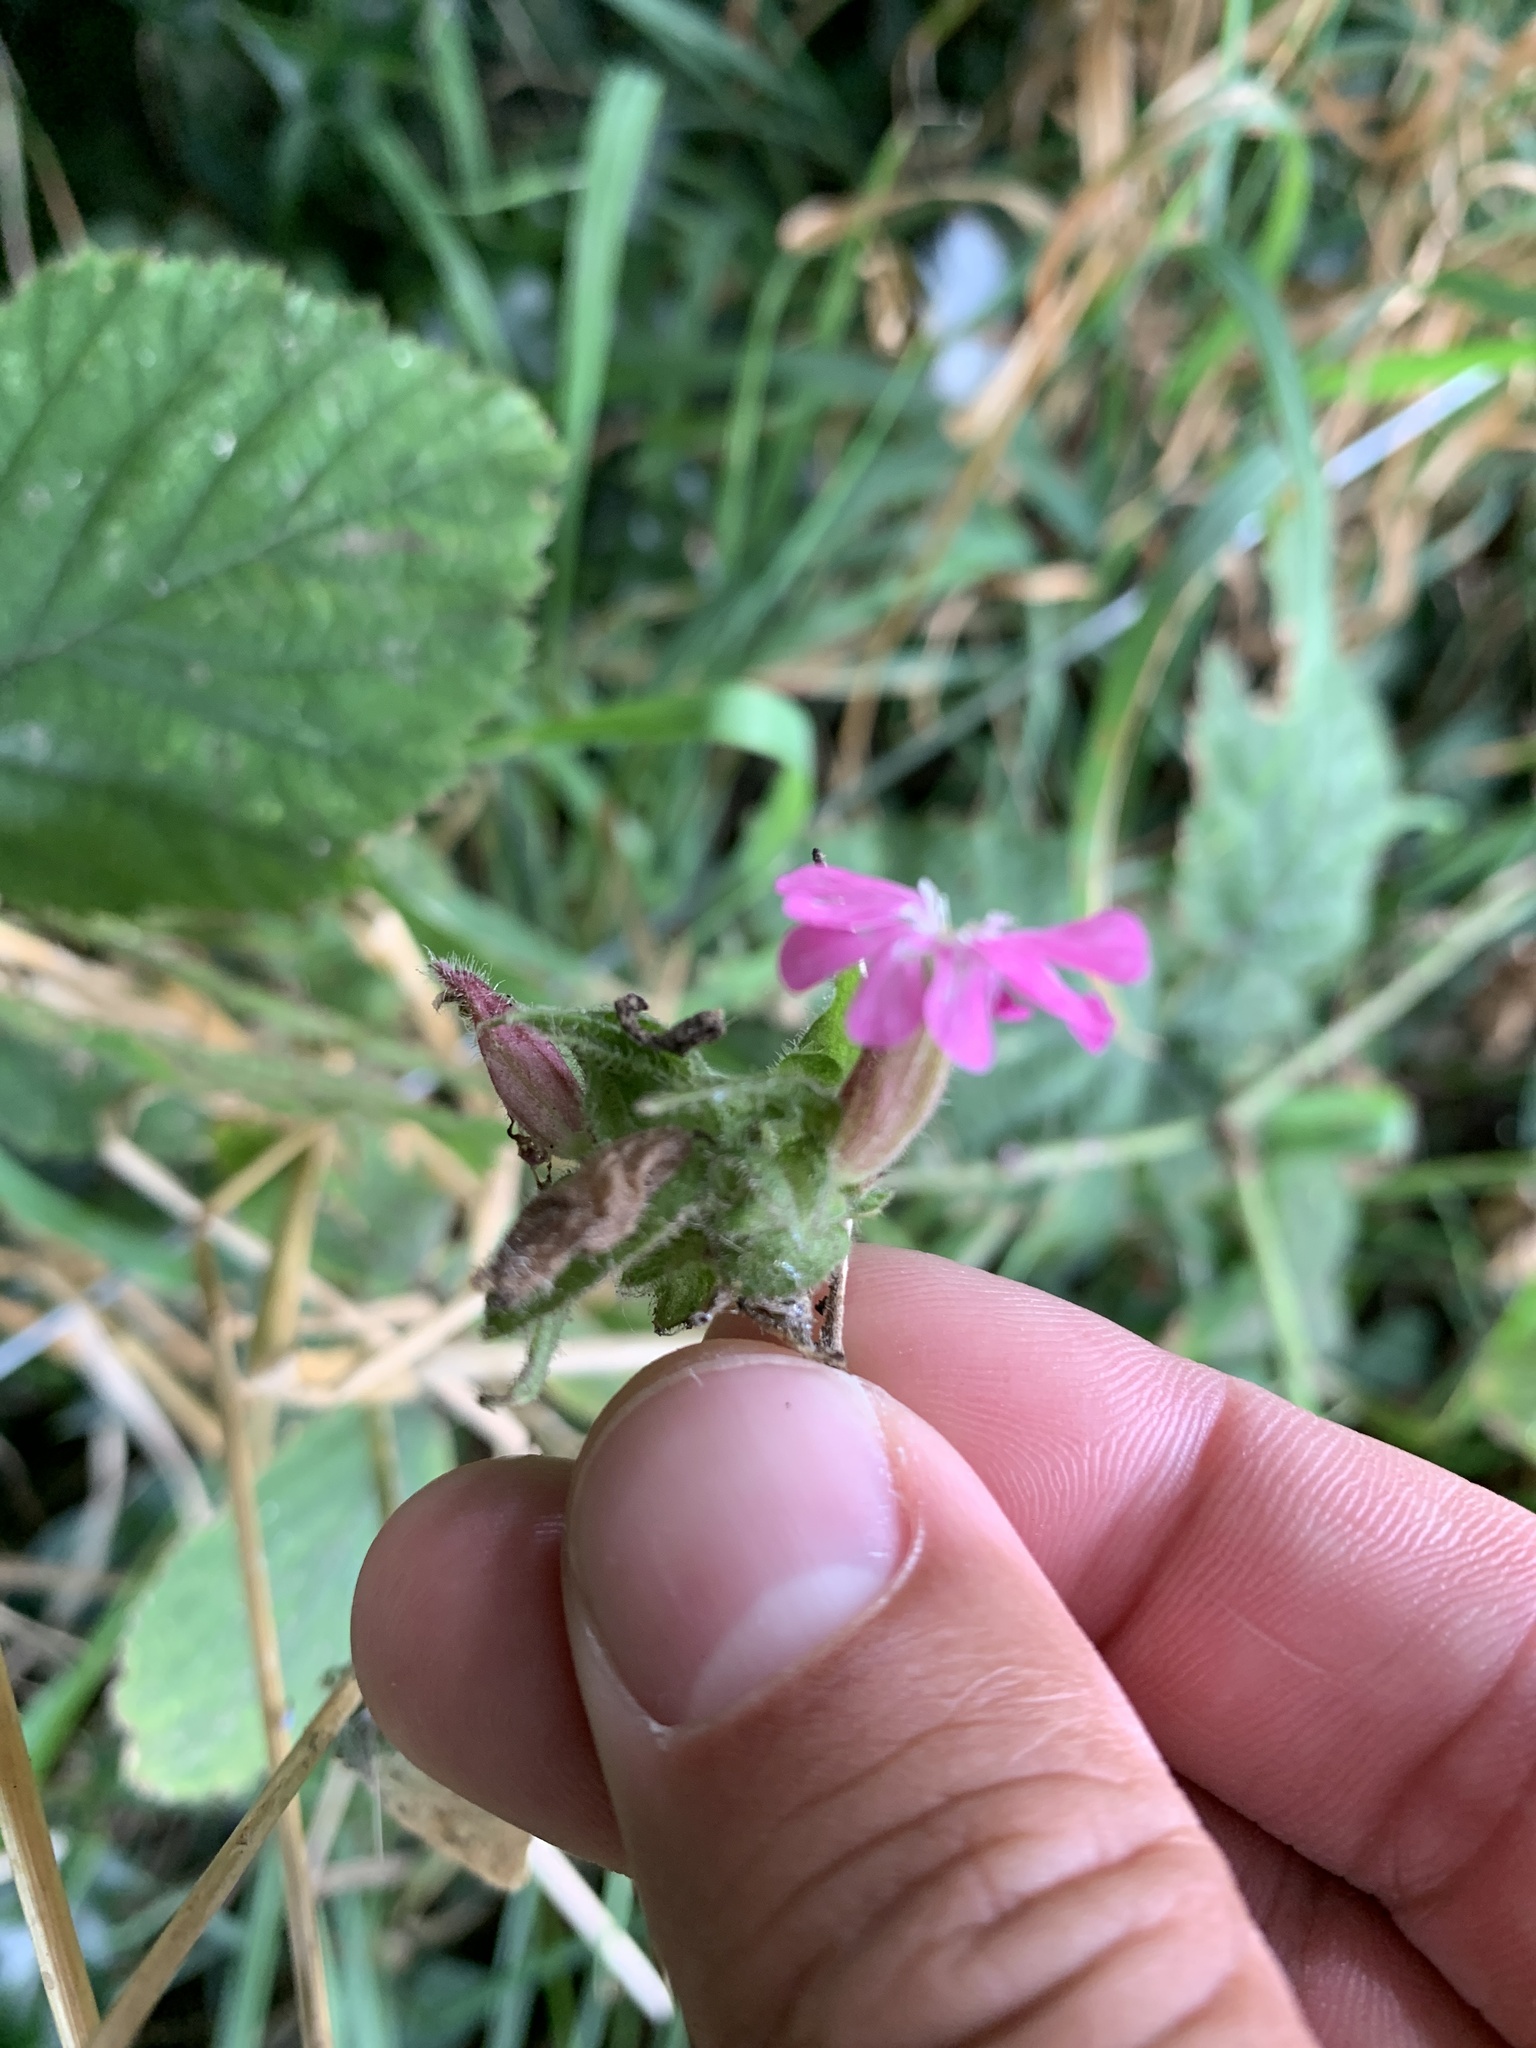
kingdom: Plantae
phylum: Tracheophyta
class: Magnoliopsida
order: Caryophyllales
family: Caryophyllaceae
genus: Silene
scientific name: Silene dioica
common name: Red campion
